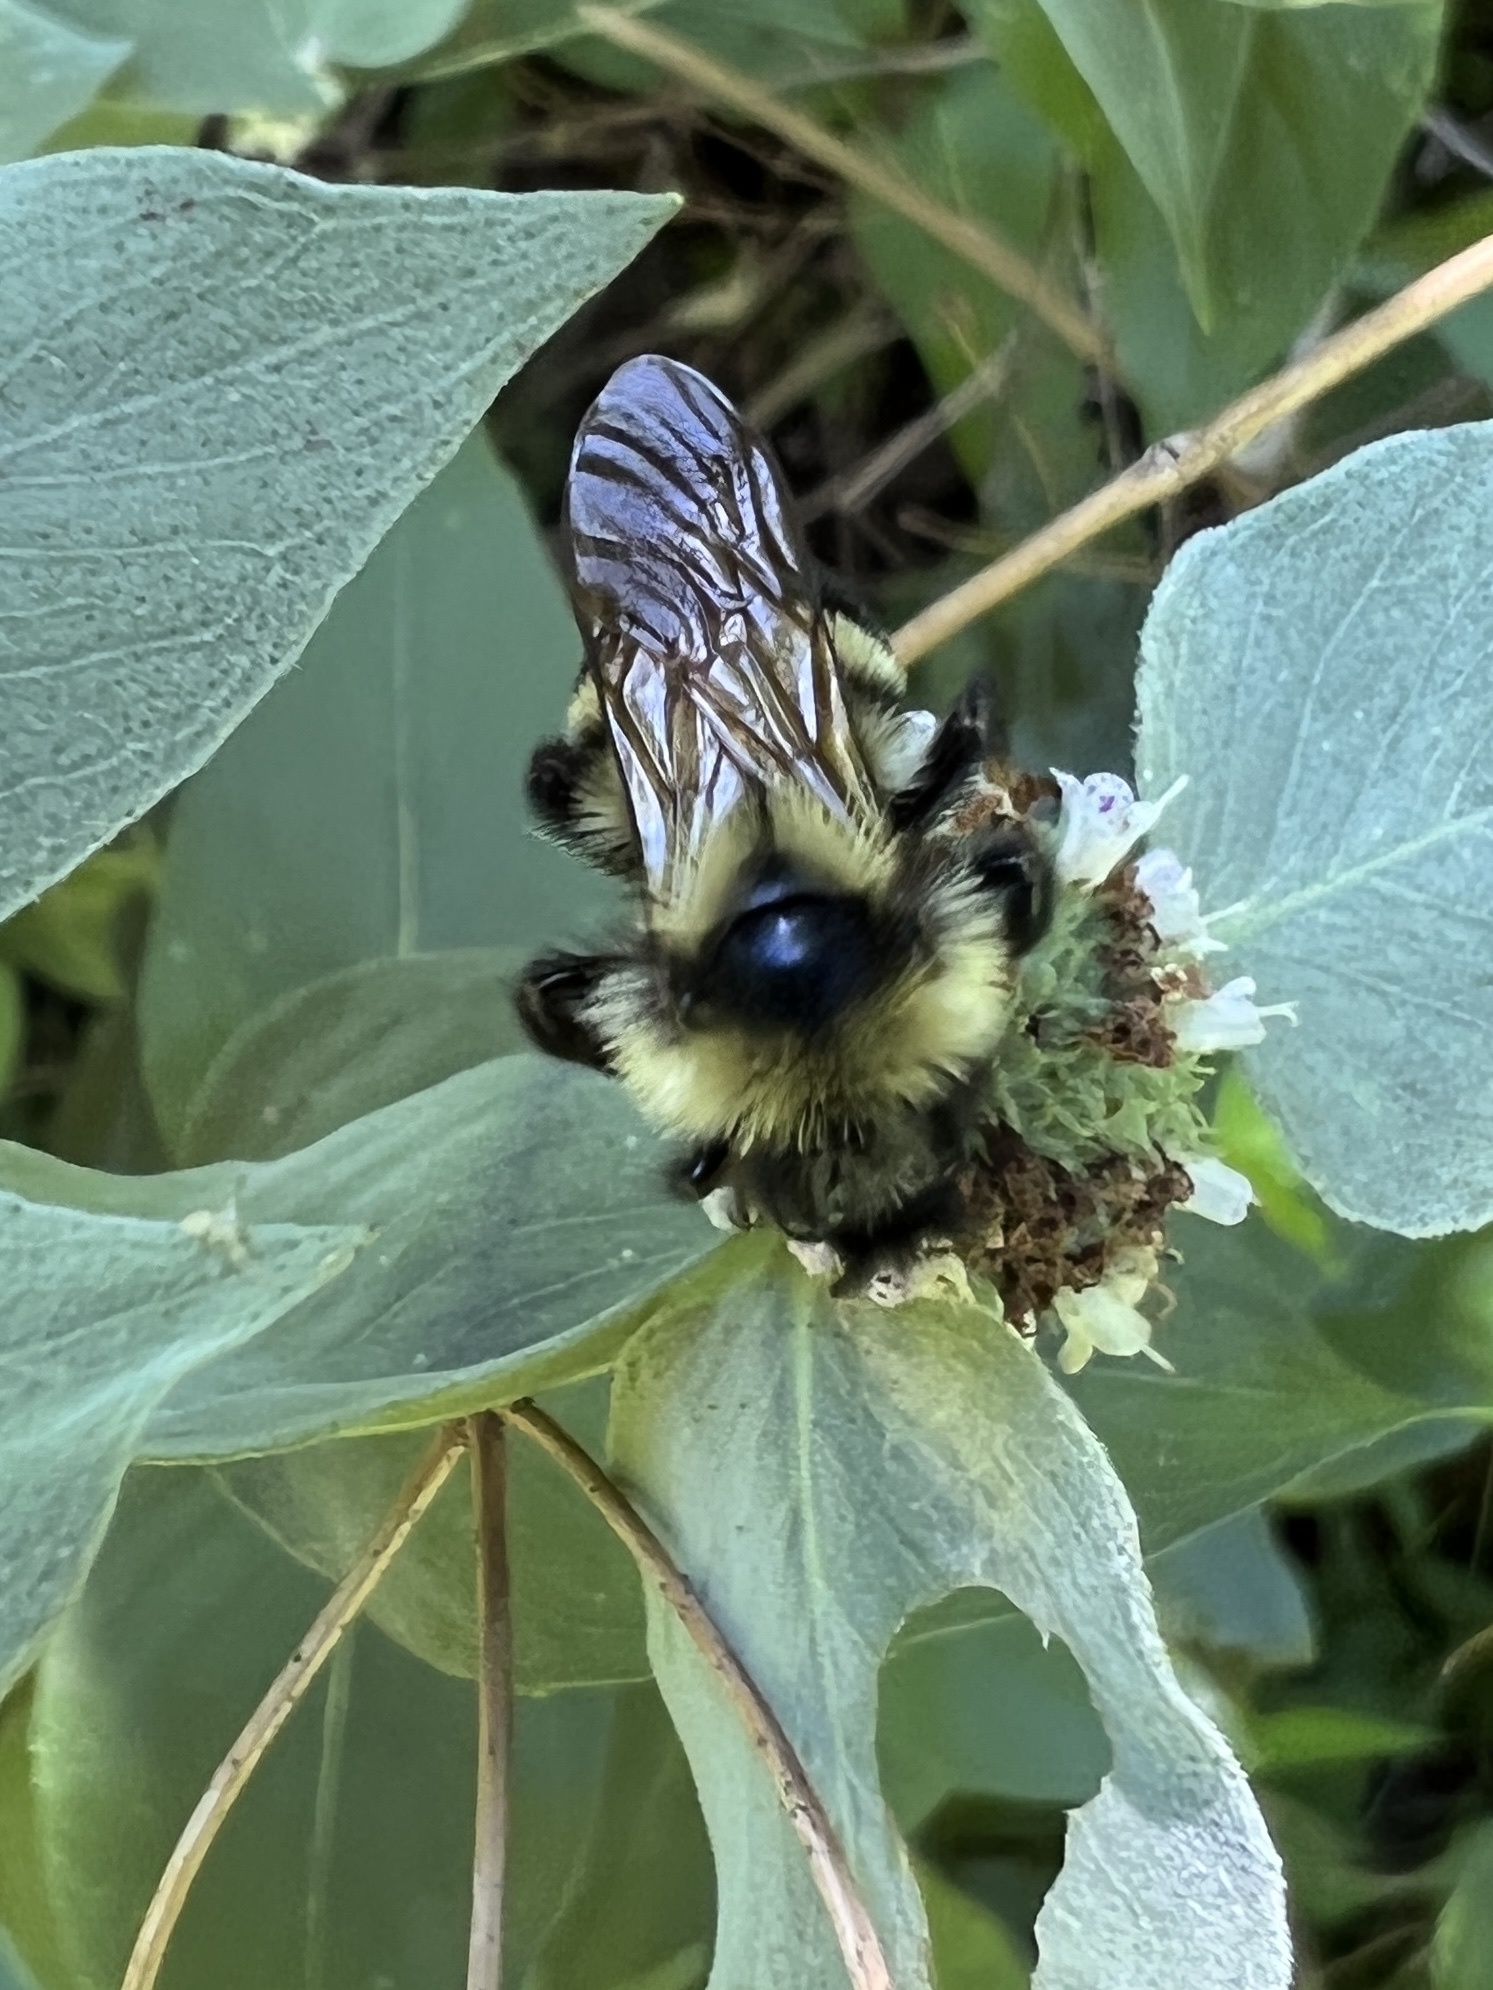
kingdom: Animalia
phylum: Arthropoda
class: Insecta
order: Hymenoptera
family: Apidae
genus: Bombus
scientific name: Bombus citrinus
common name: Lemon cuckoo bumble bee
